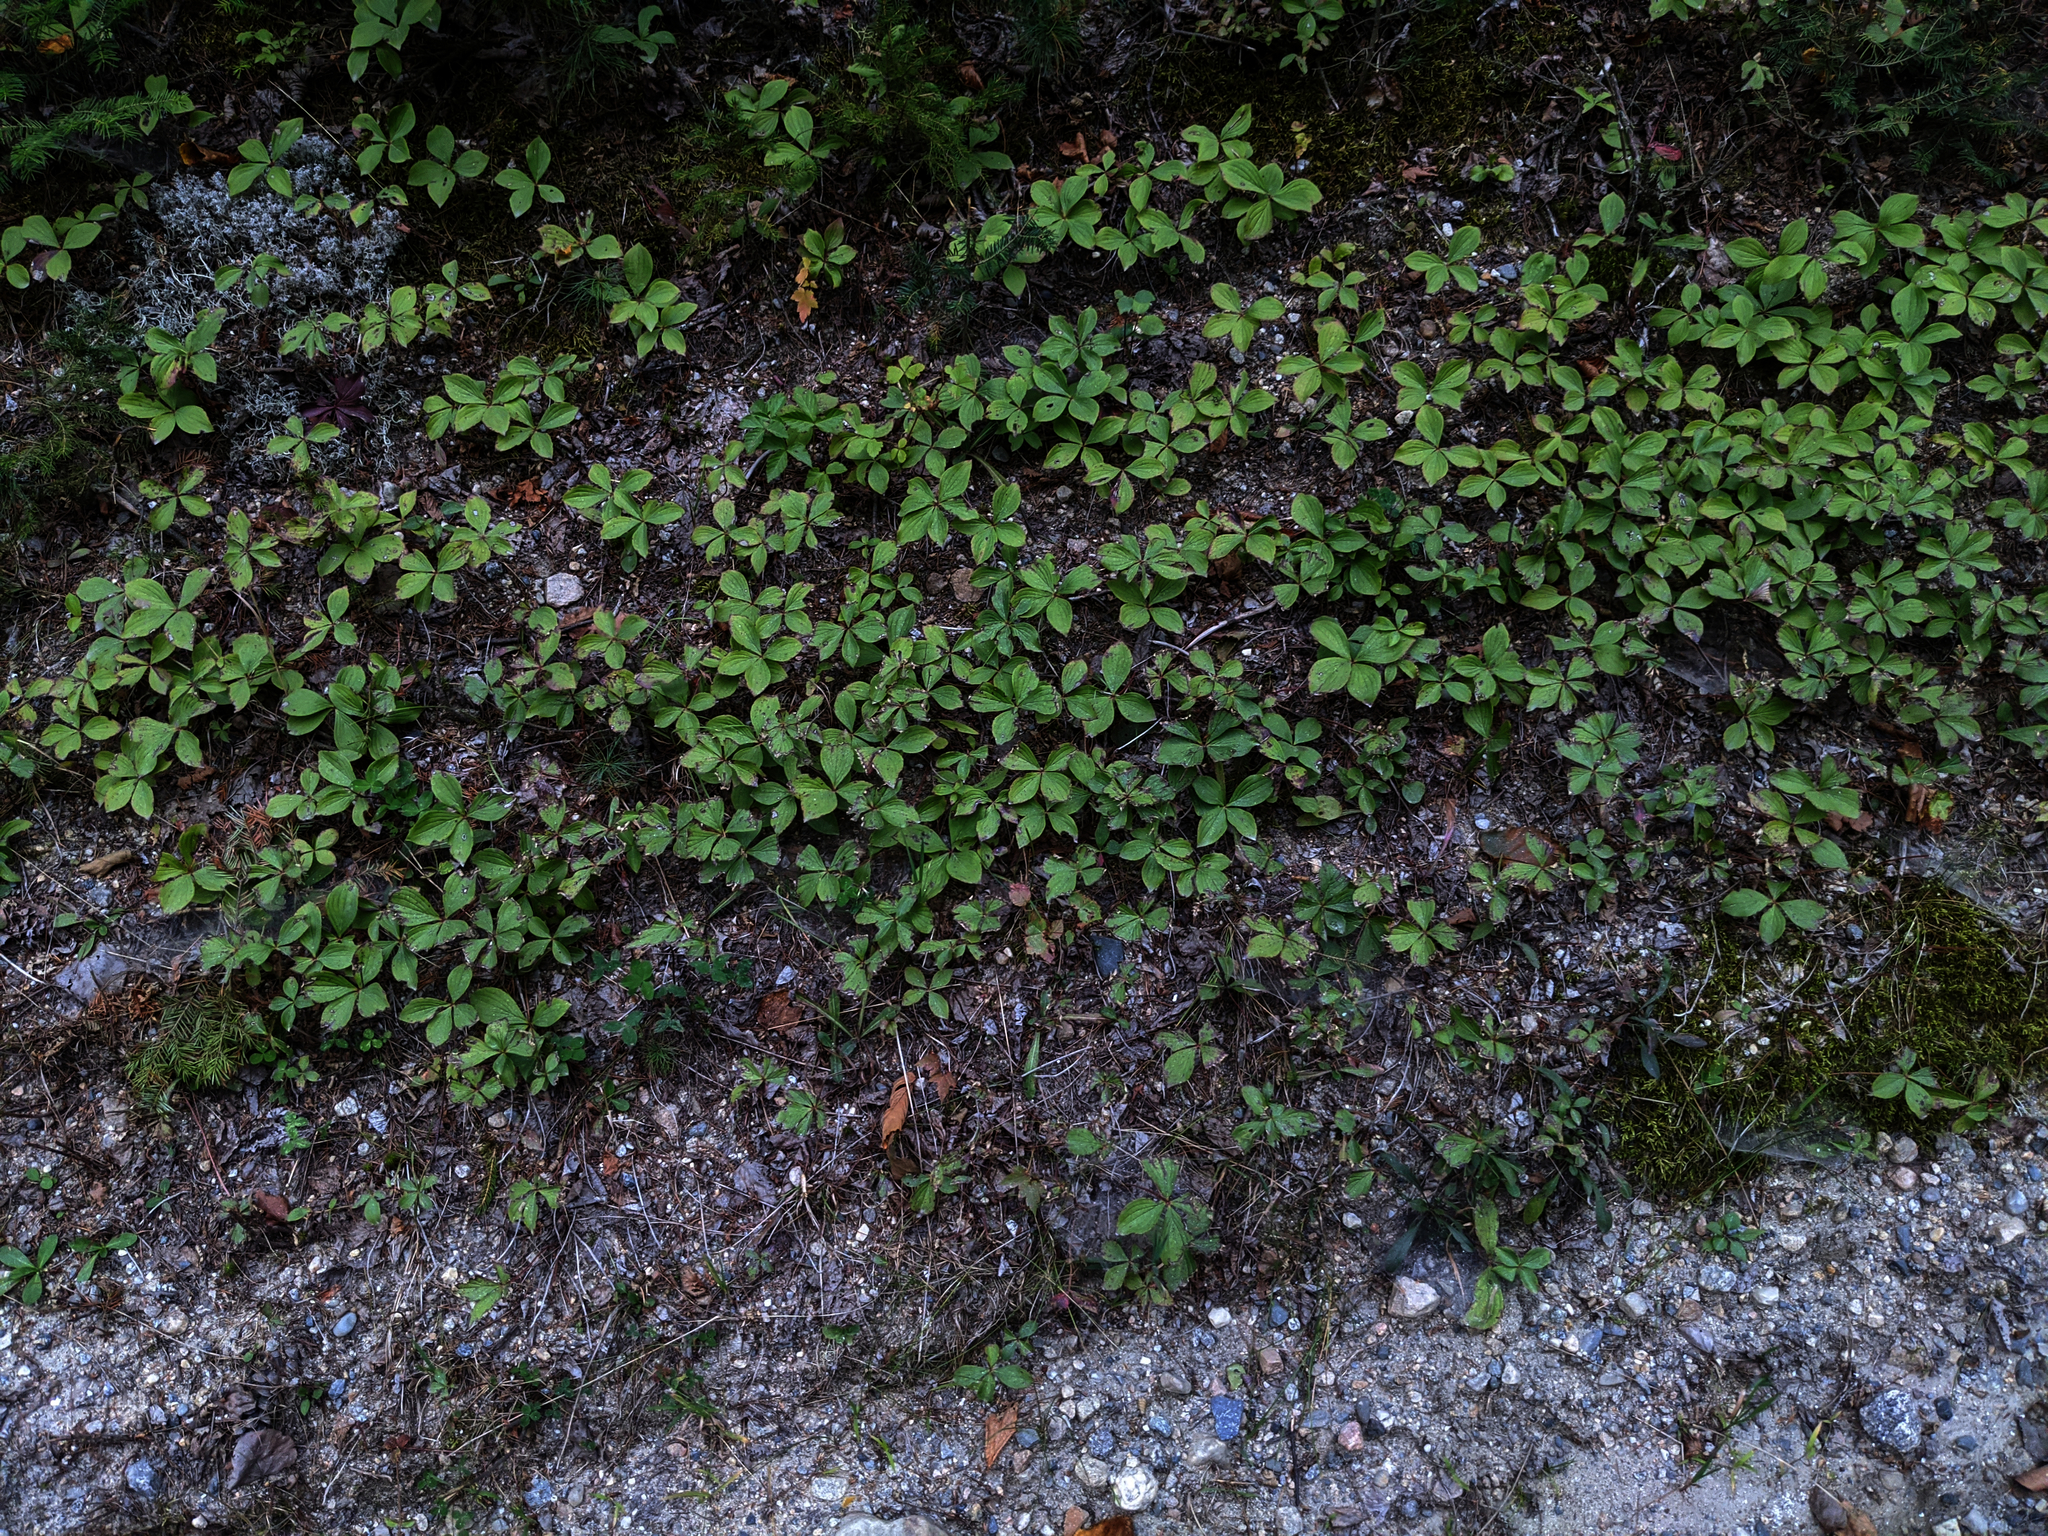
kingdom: Plantae
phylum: Tracheophyta
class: Magnoliopsida
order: Cornales
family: Cornaceae
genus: Cornus
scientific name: Cornus canadensis
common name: Creeping dogwood
